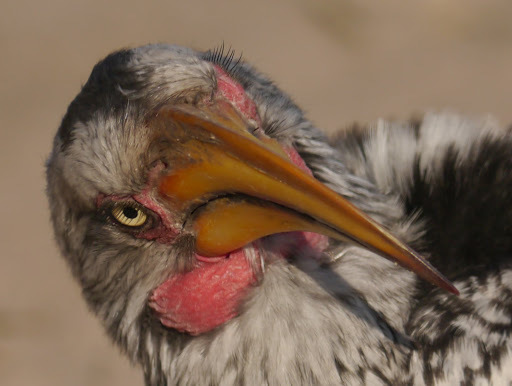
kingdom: Animalia
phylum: Chordata
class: Aves
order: Bucerotiformes
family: Bucerotidae
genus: Tockus
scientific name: Tockus leucomelas
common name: Southern yellow-billed hornbill
